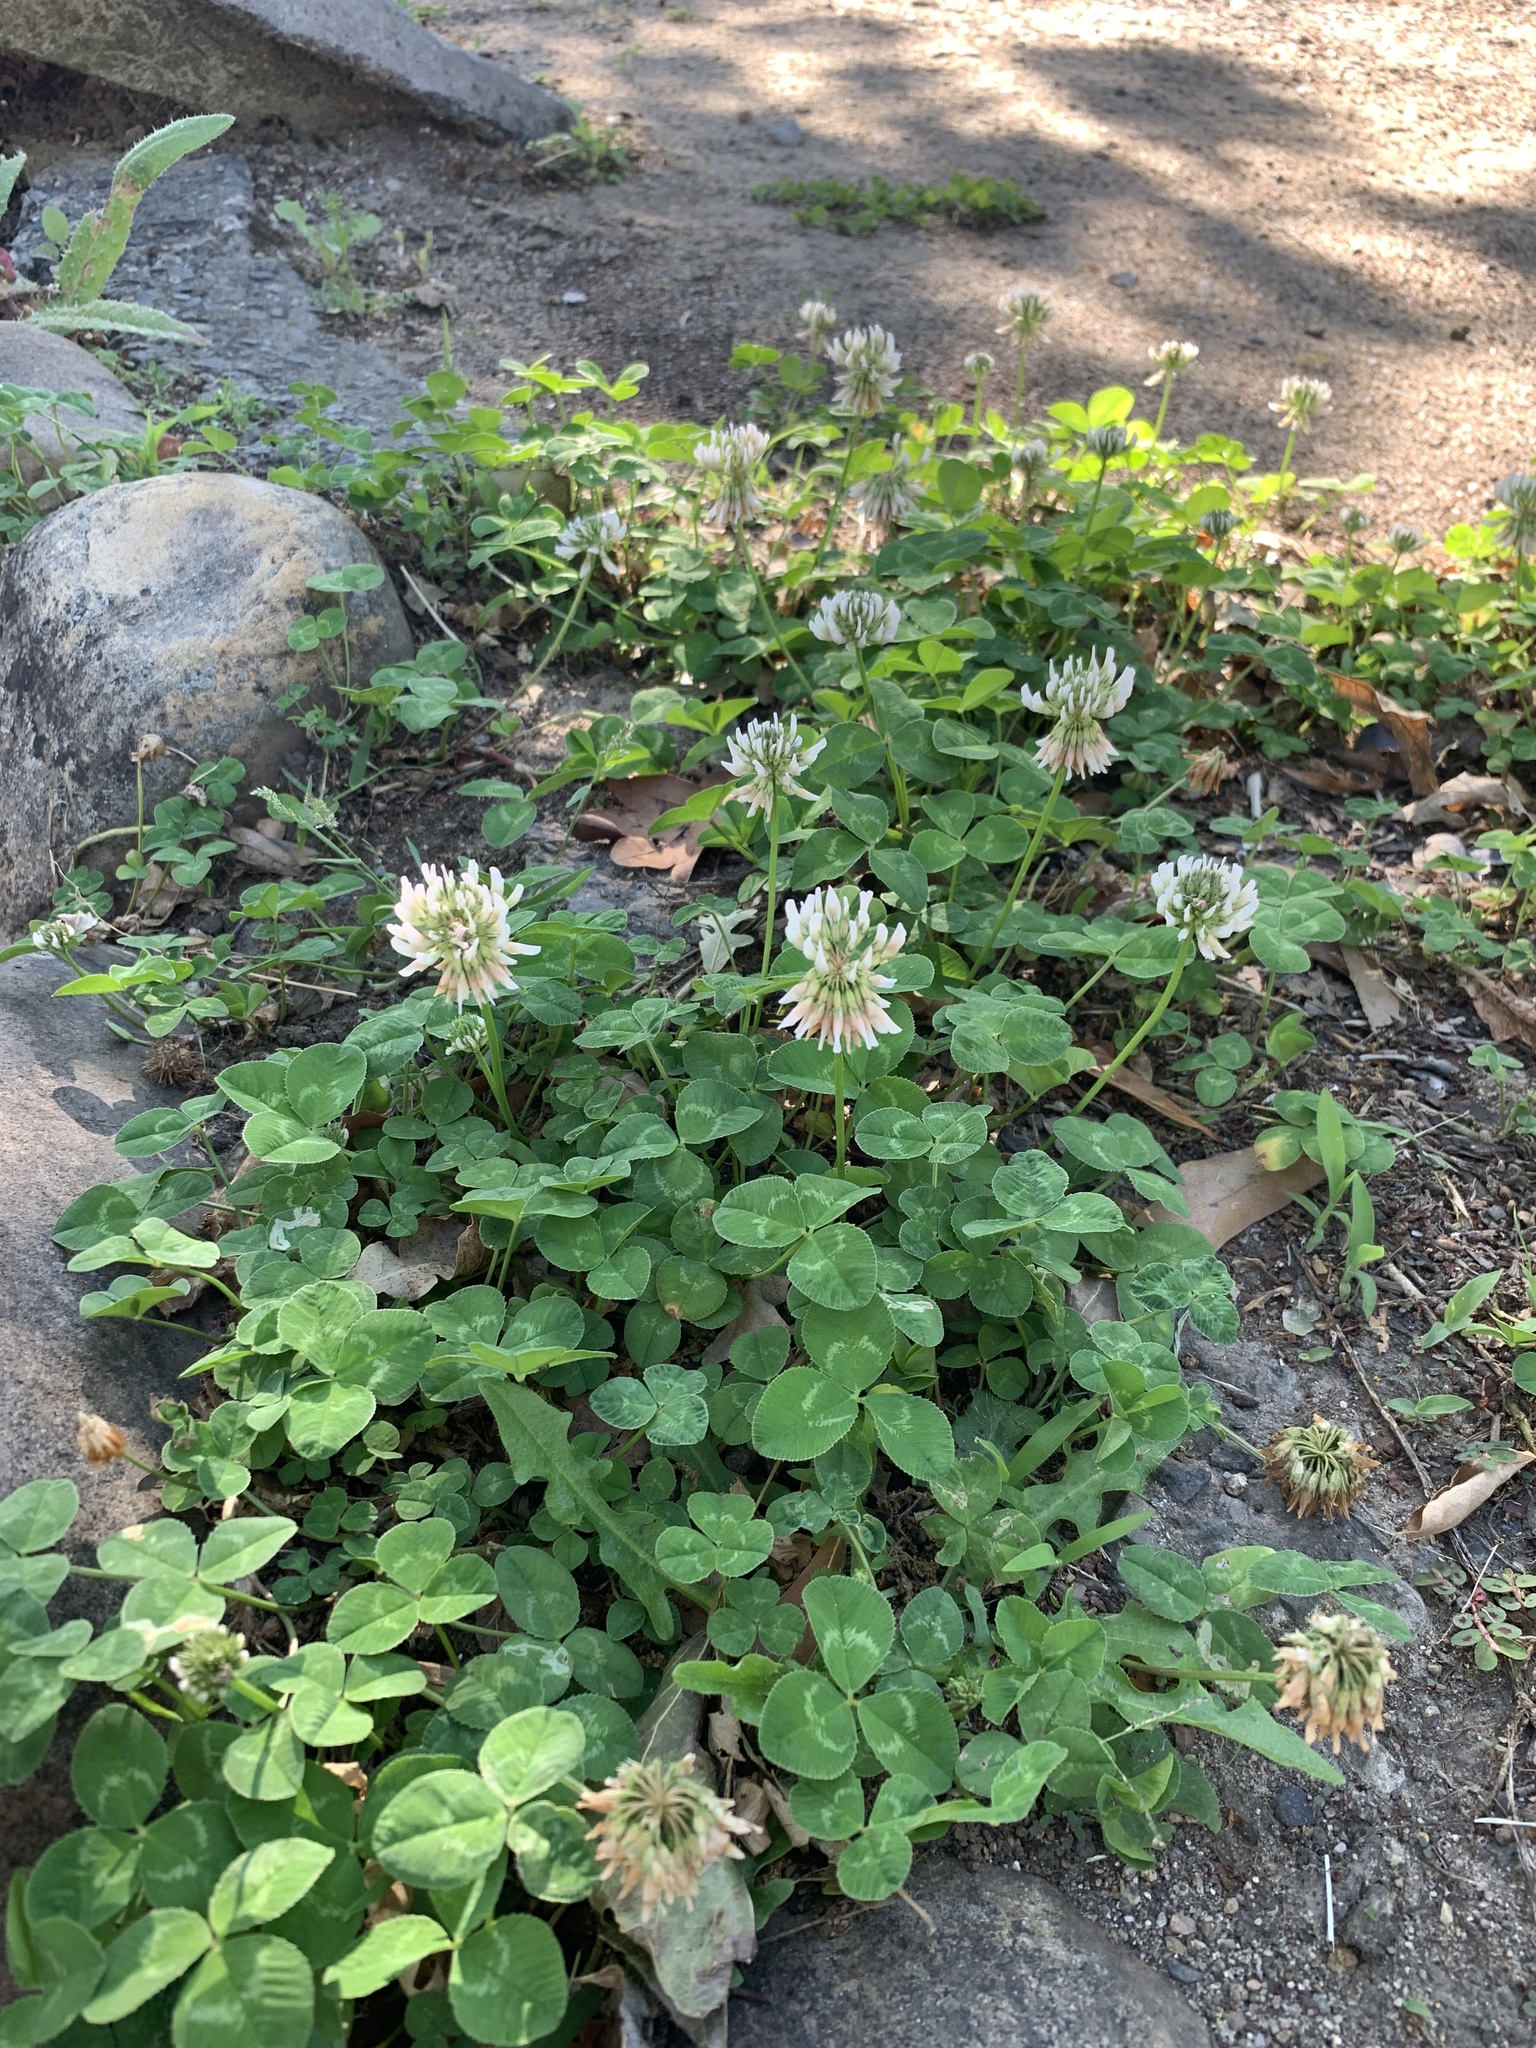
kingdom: Plantae
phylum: Tracheophyta
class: Magnoliopsida
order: Fabales
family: Fabaceae
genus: Trifolium
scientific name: Trifolium repens
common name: White clover
